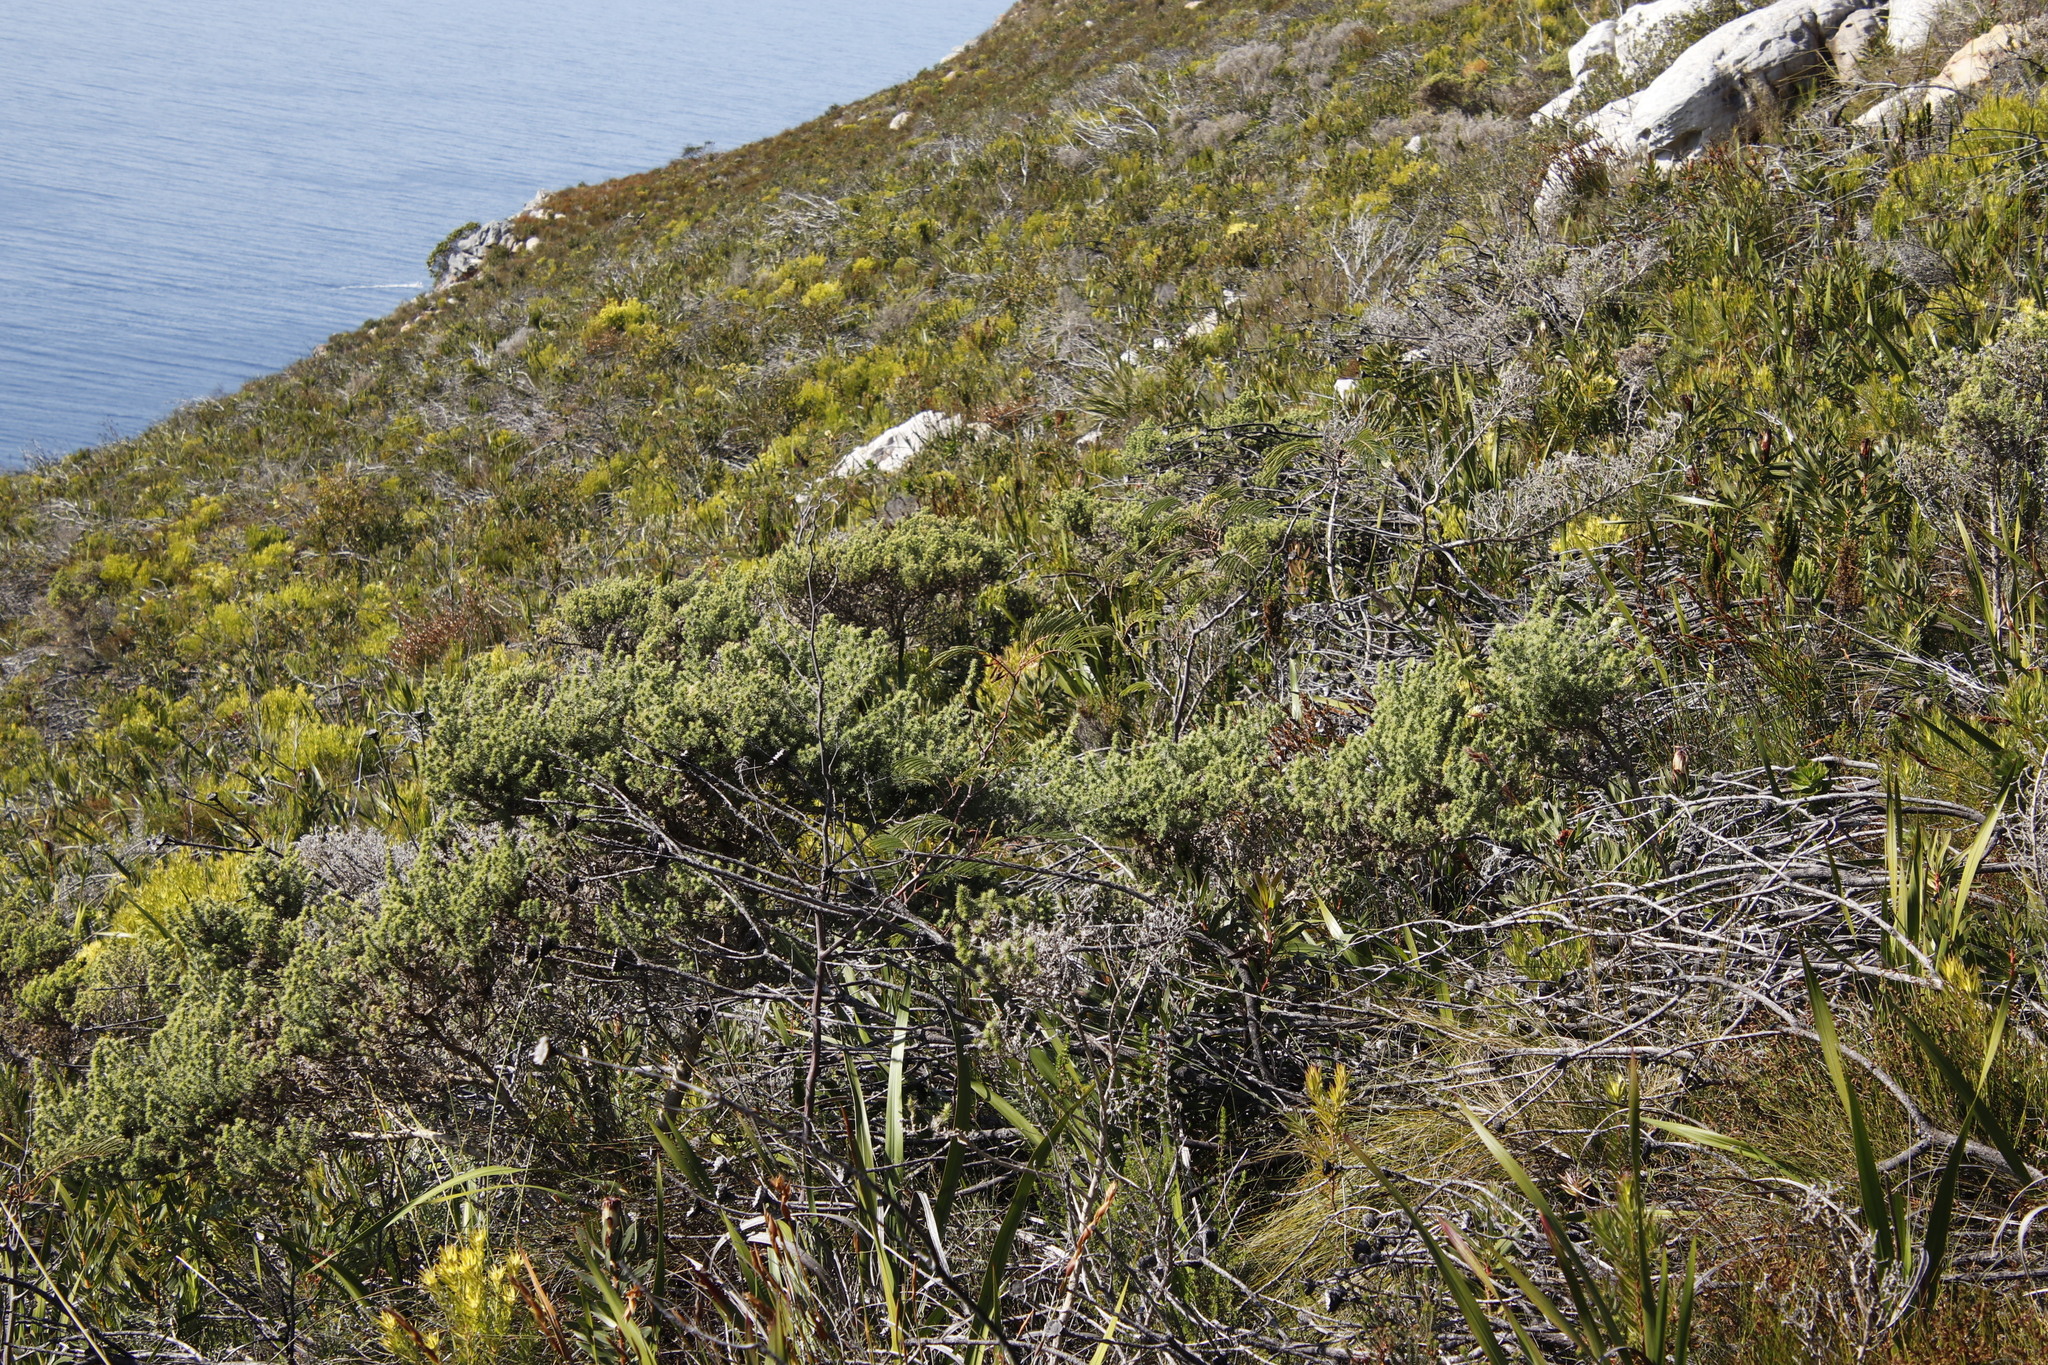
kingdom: Plantae
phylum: Tracheophyta
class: Magnoliopsida
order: Fabales
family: Fabaceae
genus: Paraserianthes
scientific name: Paraserianthes lophantha
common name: Plume albizia
